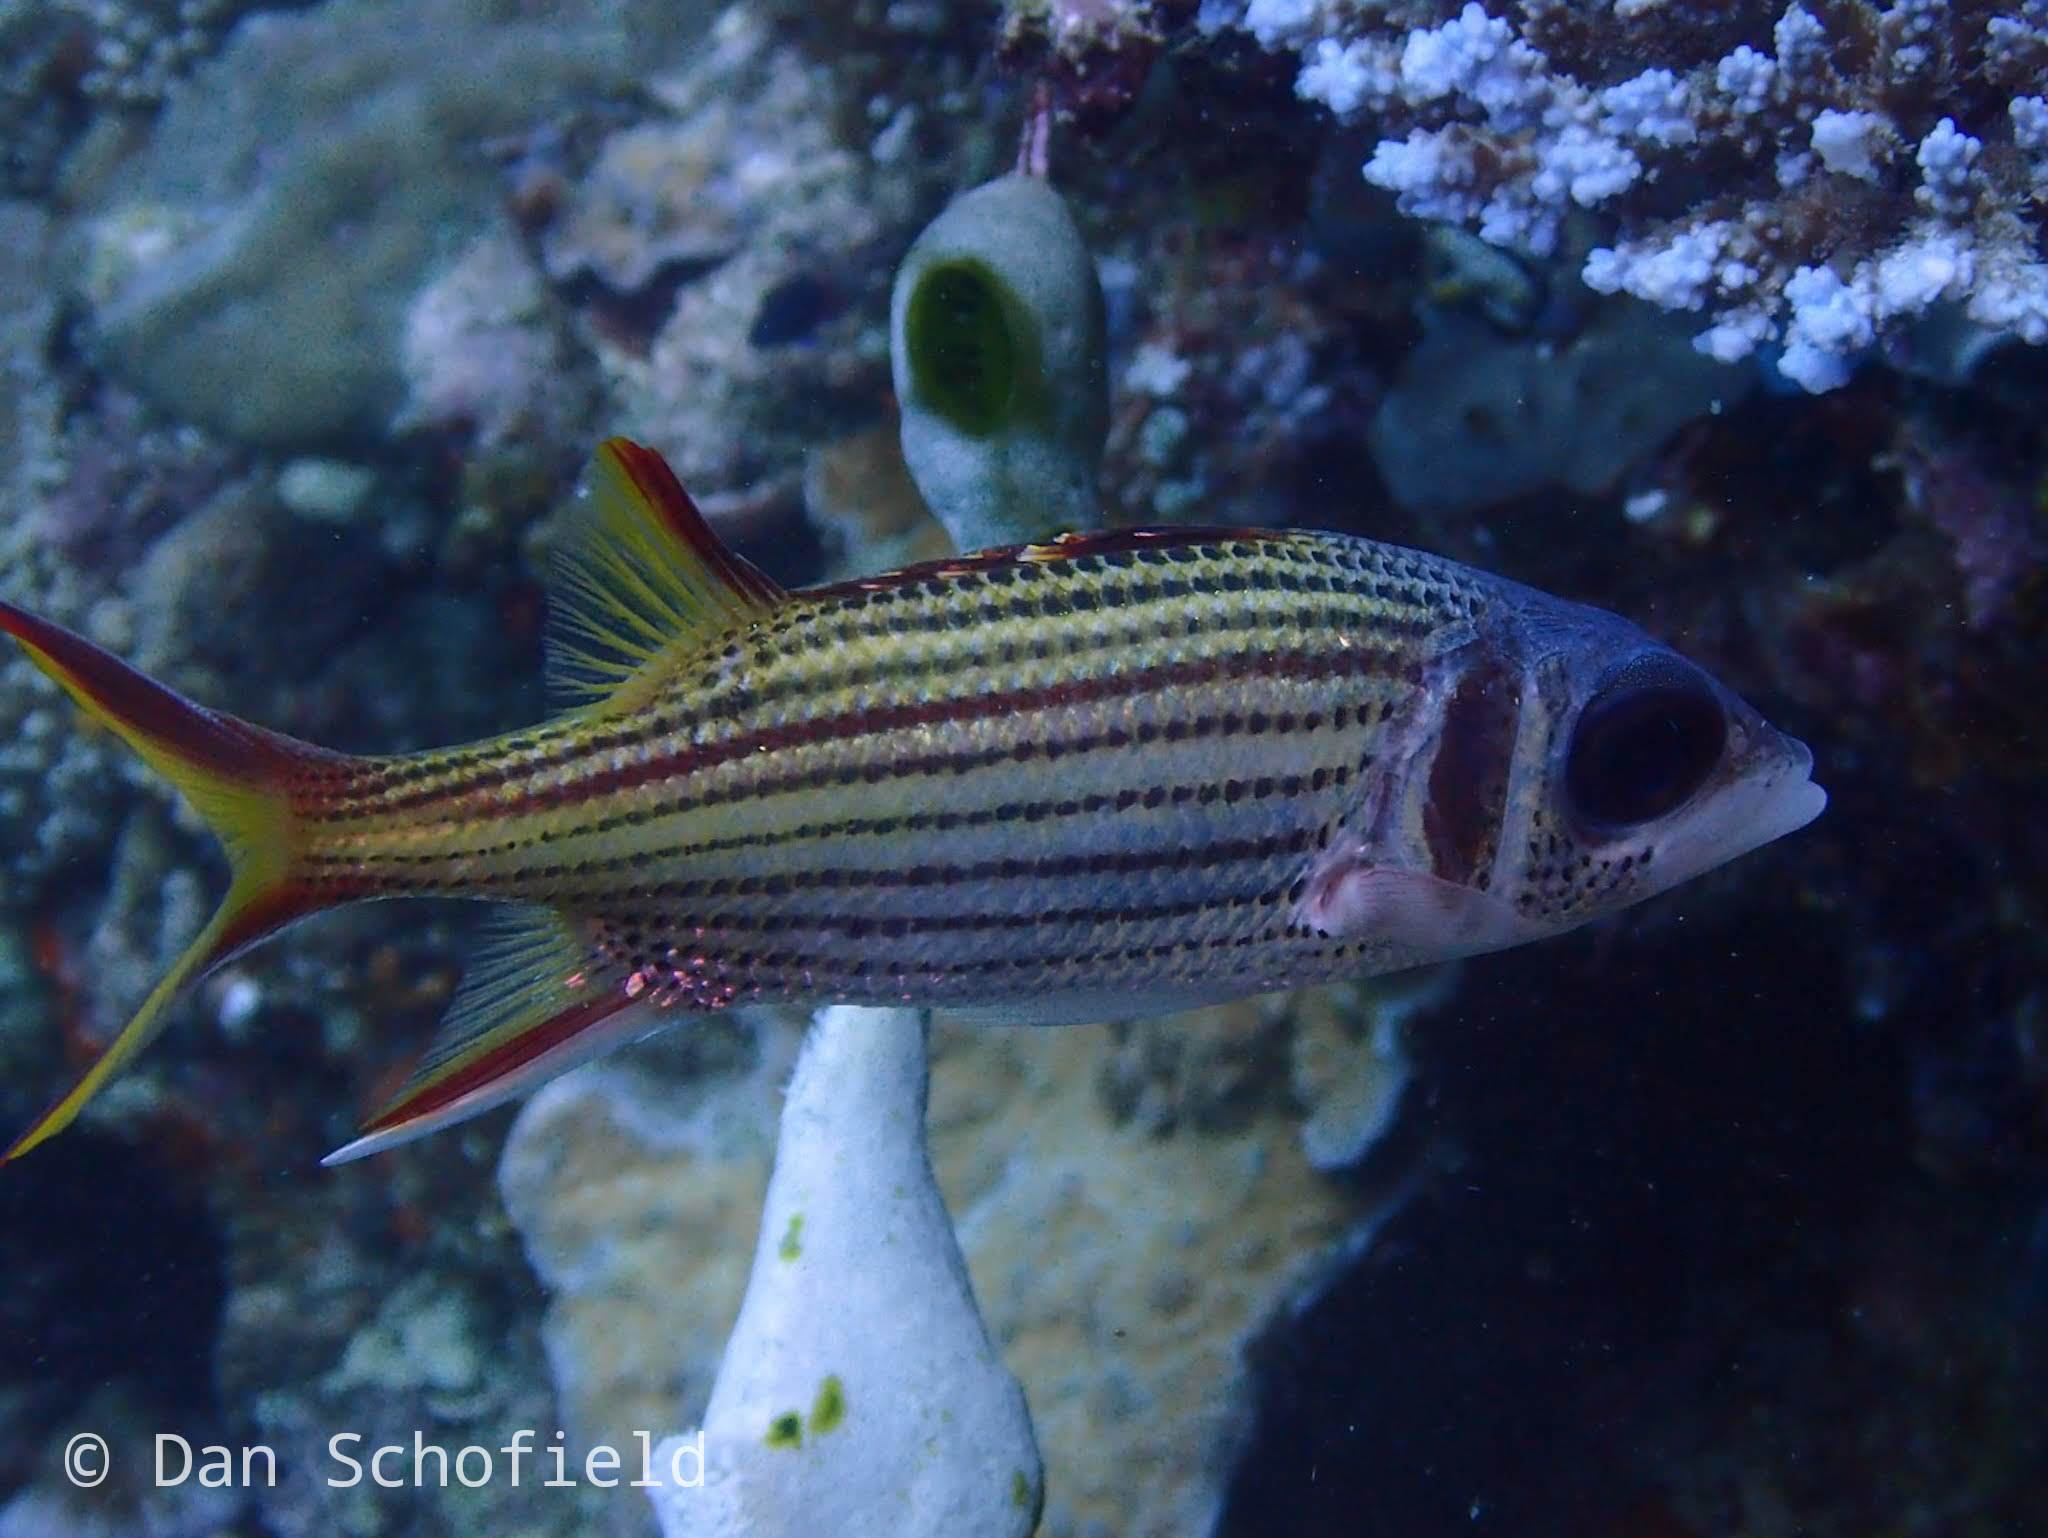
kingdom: Animalia
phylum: Chordata
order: Beryciformes
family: Holocentridae
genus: Neoniphon
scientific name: Neoniphon sammara
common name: Sammara squirrelfish
